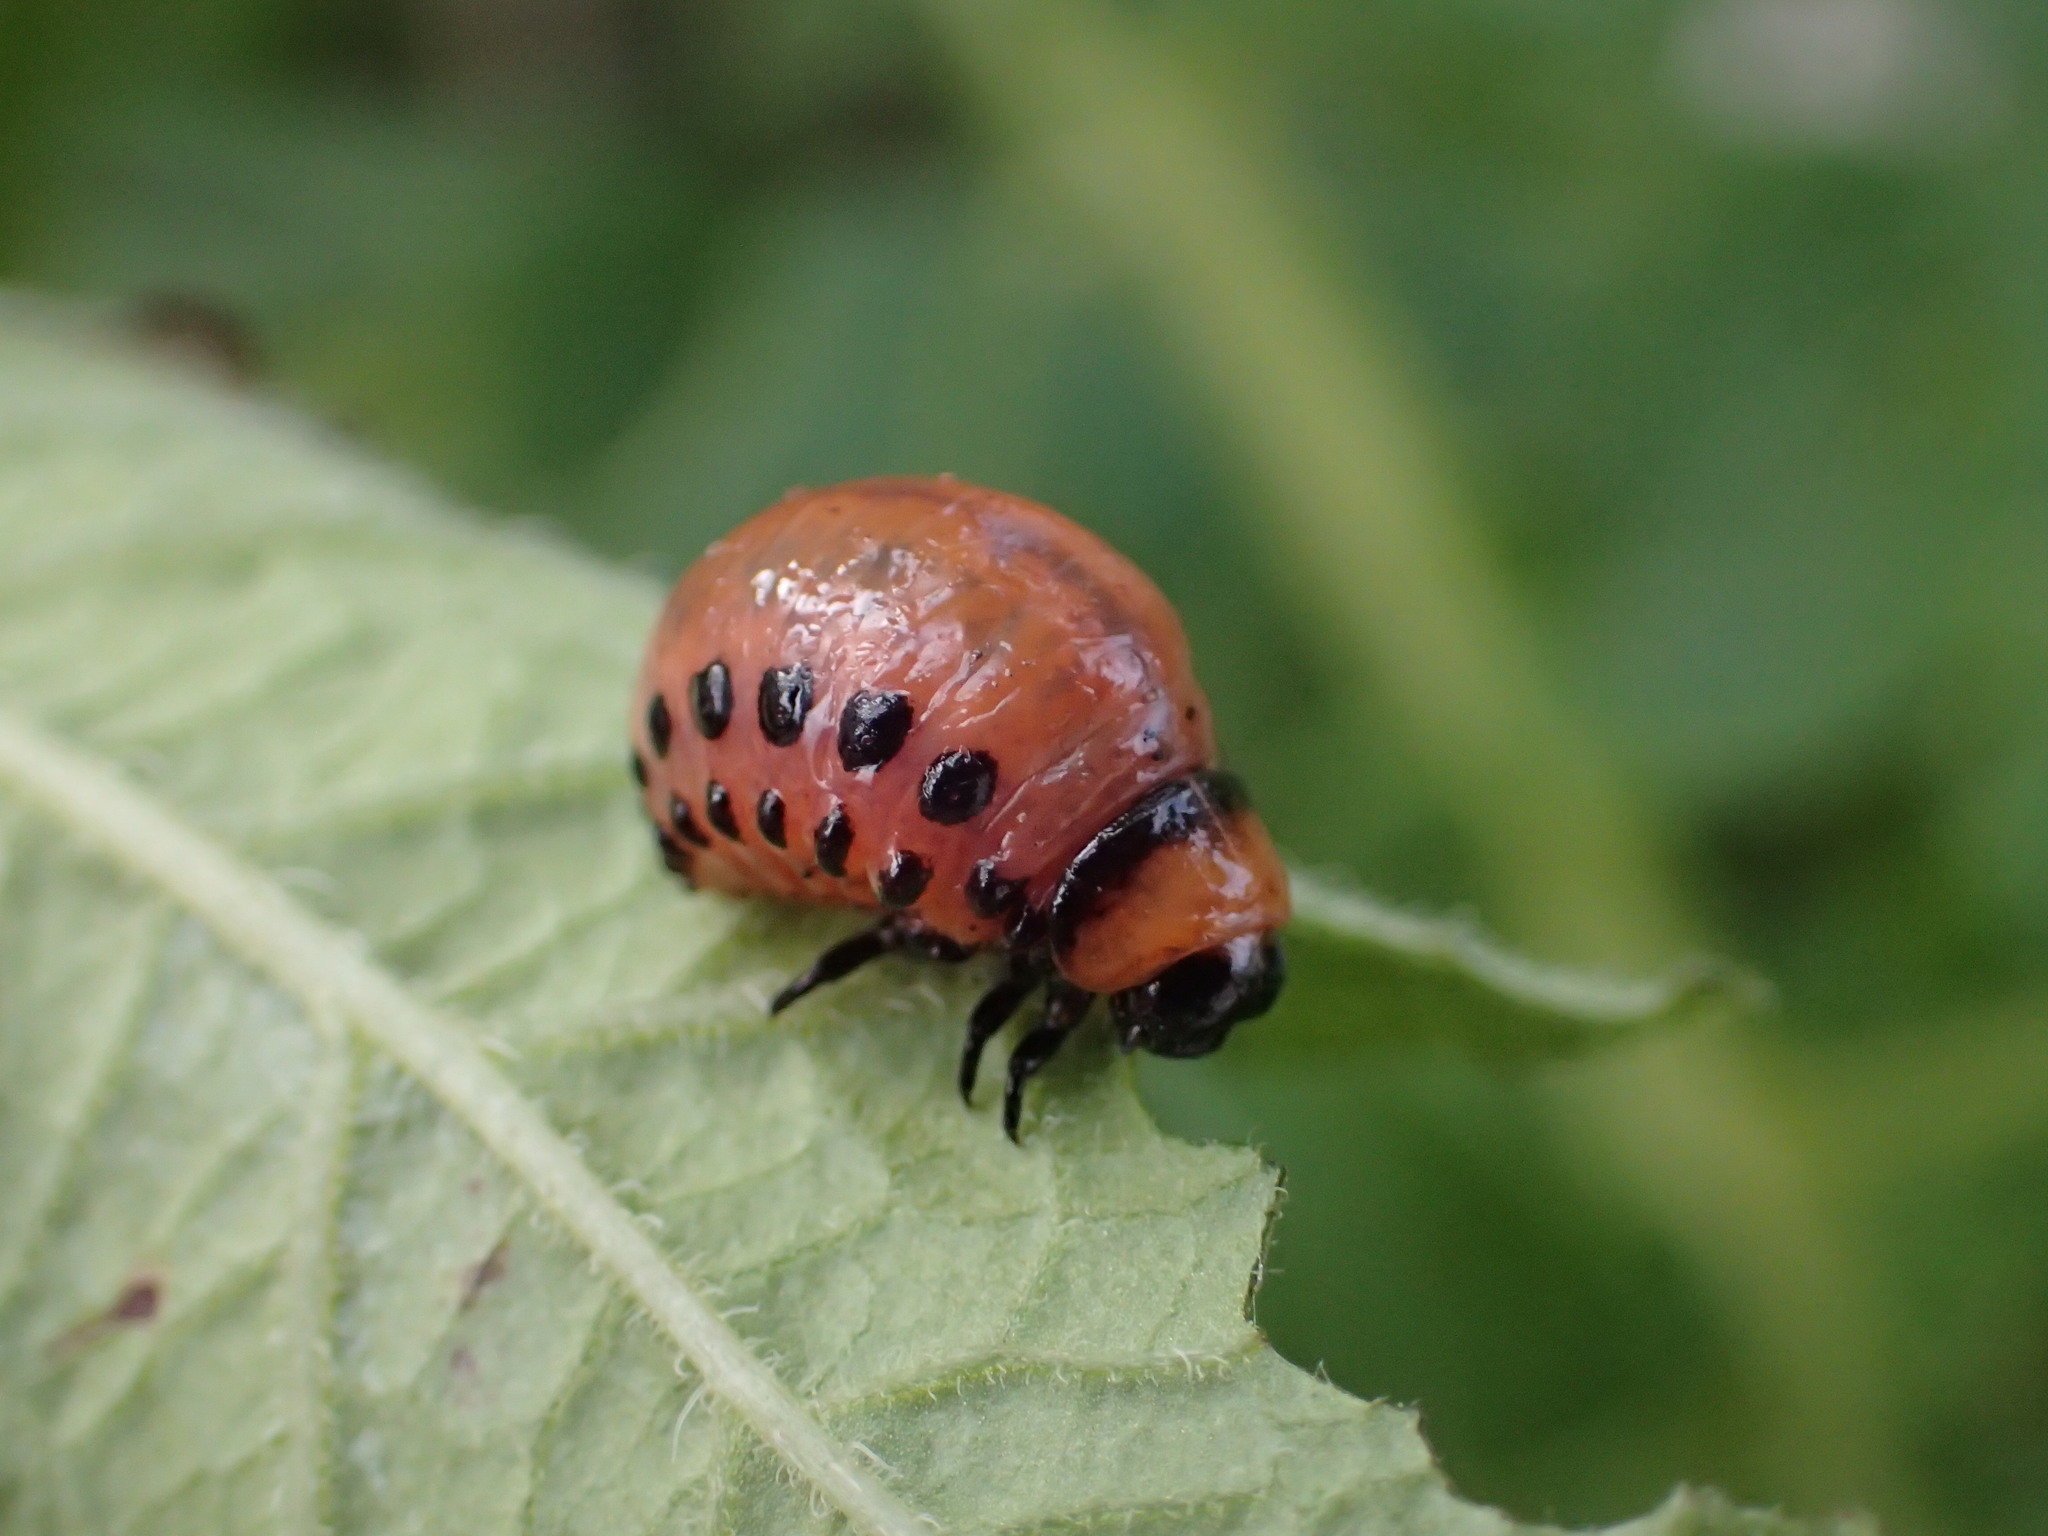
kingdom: Animalia
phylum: Arthropoda
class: Insecta
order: Coleoptera
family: Chrysomelidae
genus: Leptinotarsa
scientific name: Leptinotarsa decemlineata
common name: Colorado potato beetle
